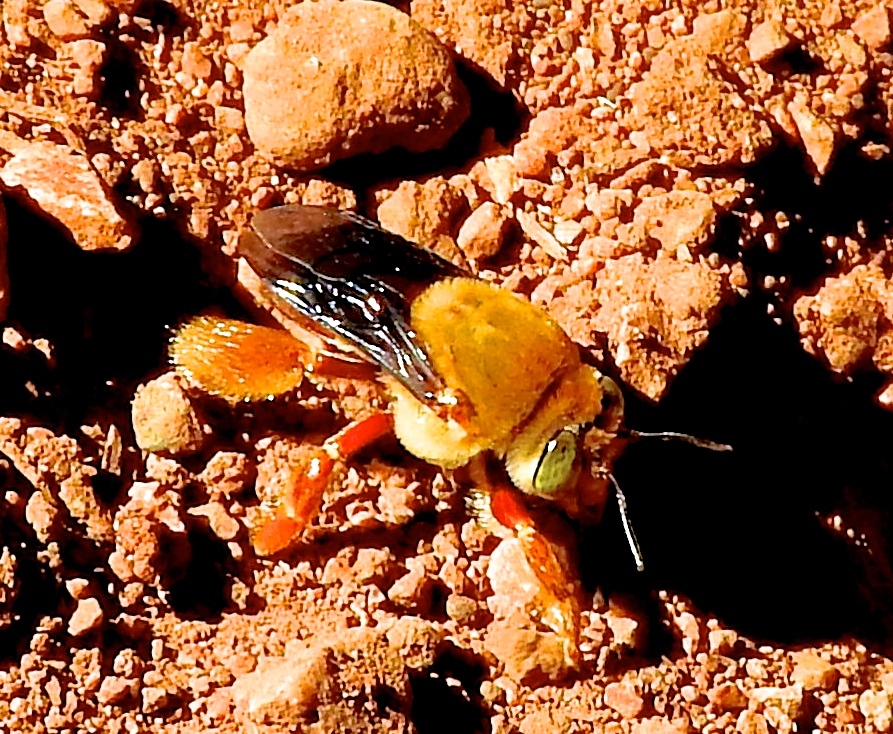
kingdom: Animalia
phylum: Arthropoda
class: Insecta
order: Hymenoptera
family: Apidae
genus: Centris
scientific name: Centris
